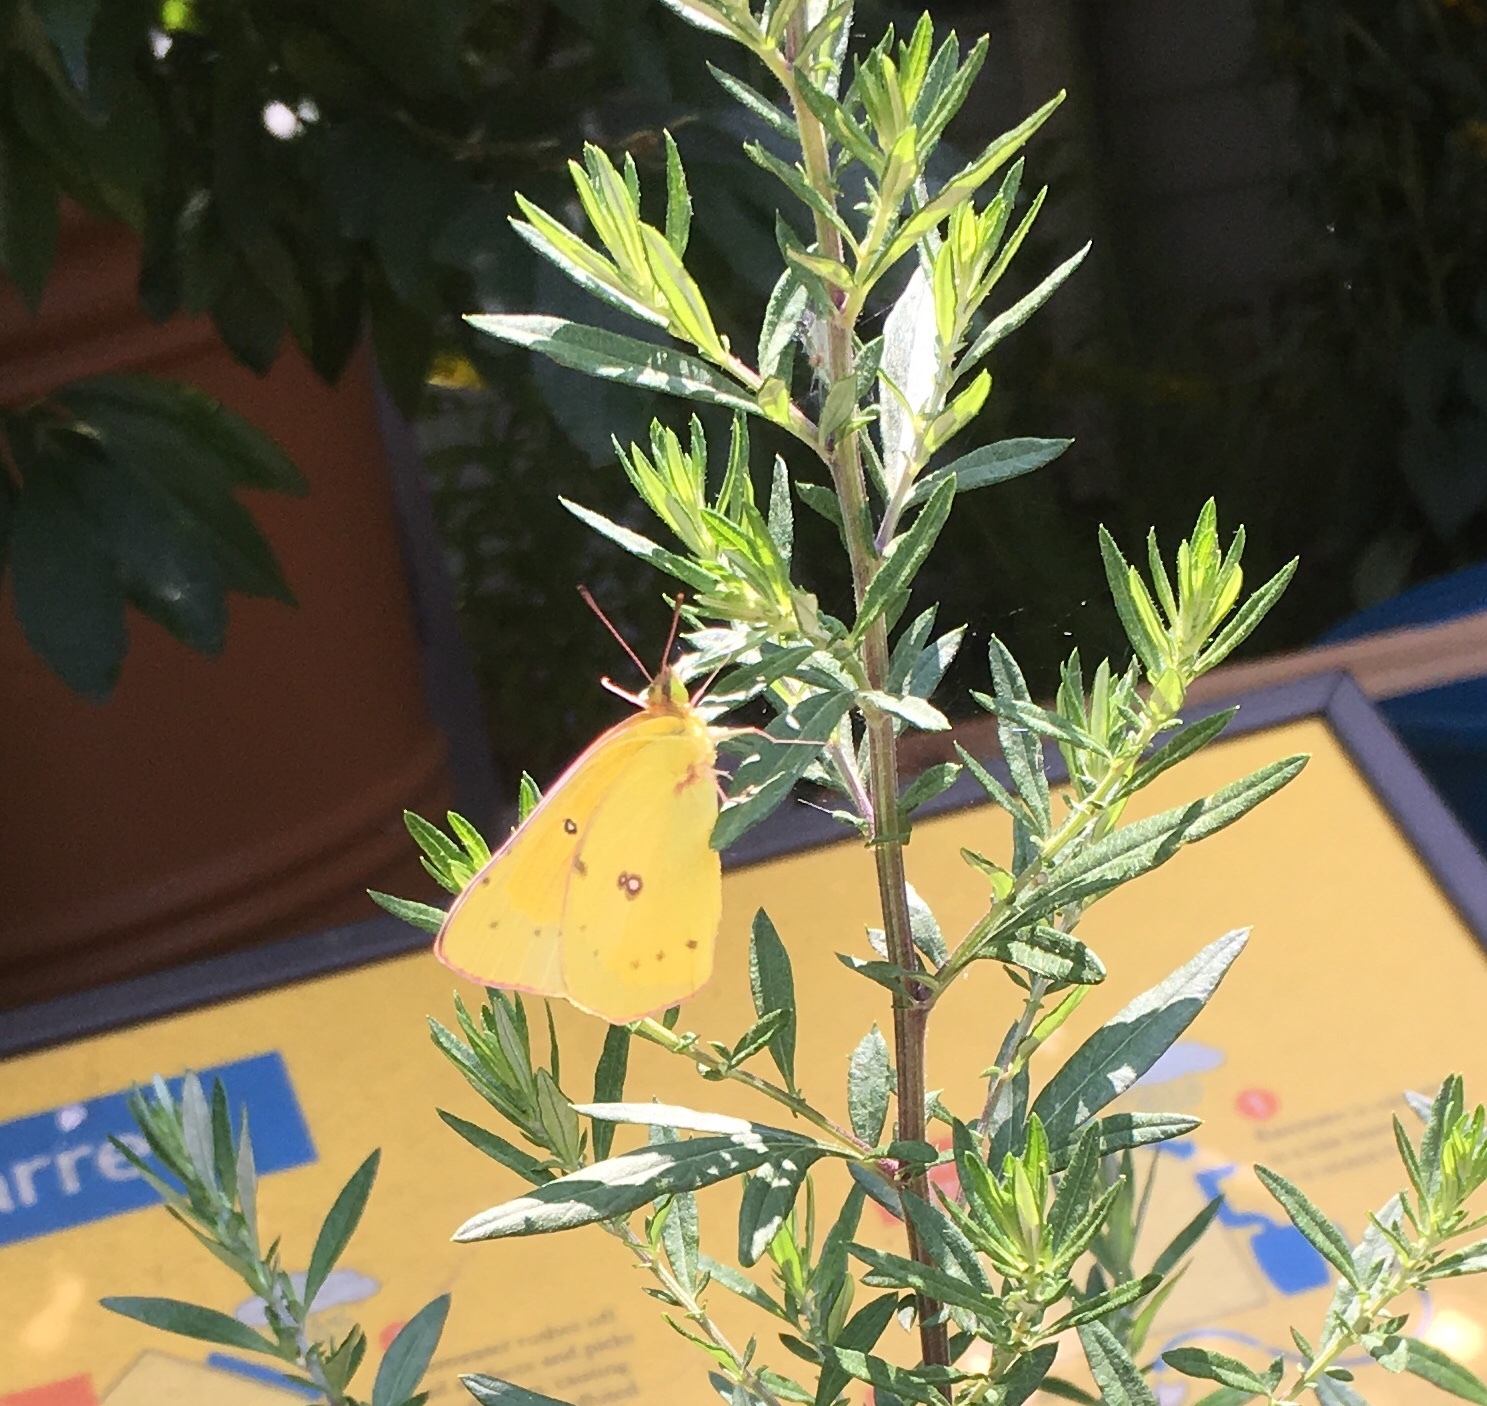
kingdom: Animalia
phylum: Arthropoda
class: Insecta
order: Lepidoptera
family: Pieridae
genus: Colias
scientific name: Colias eurytheme
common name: Alfalfa butterfly
